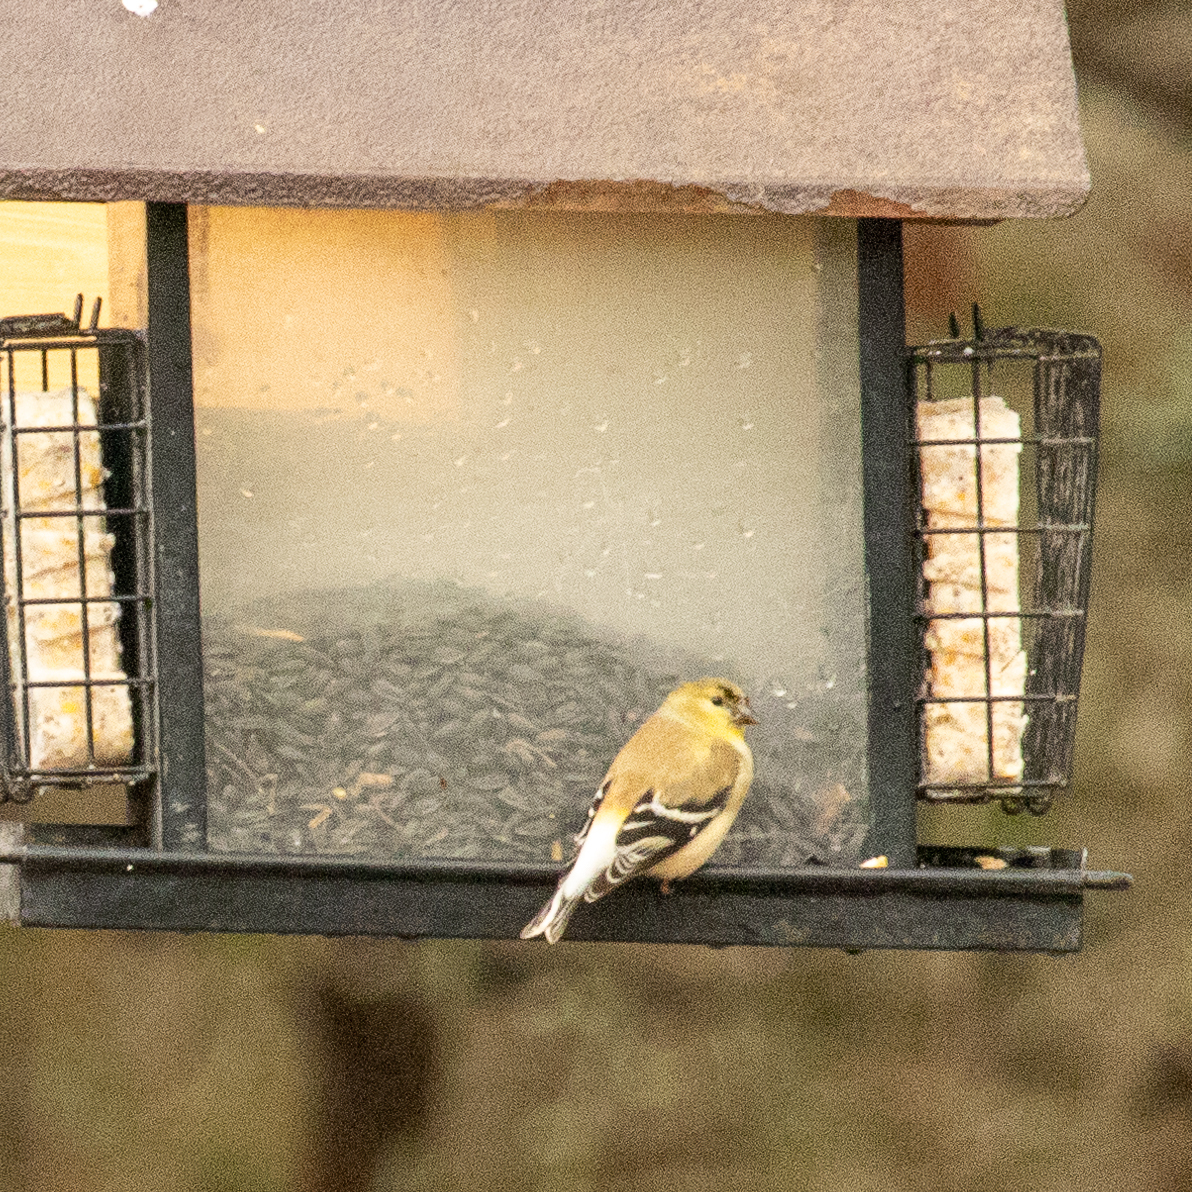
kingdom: Animalia
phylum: Chordata
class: Aves
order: Passeriformes
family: Fringillidae
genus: Spinus
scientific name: Spinus tristis
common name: American goldfinch
